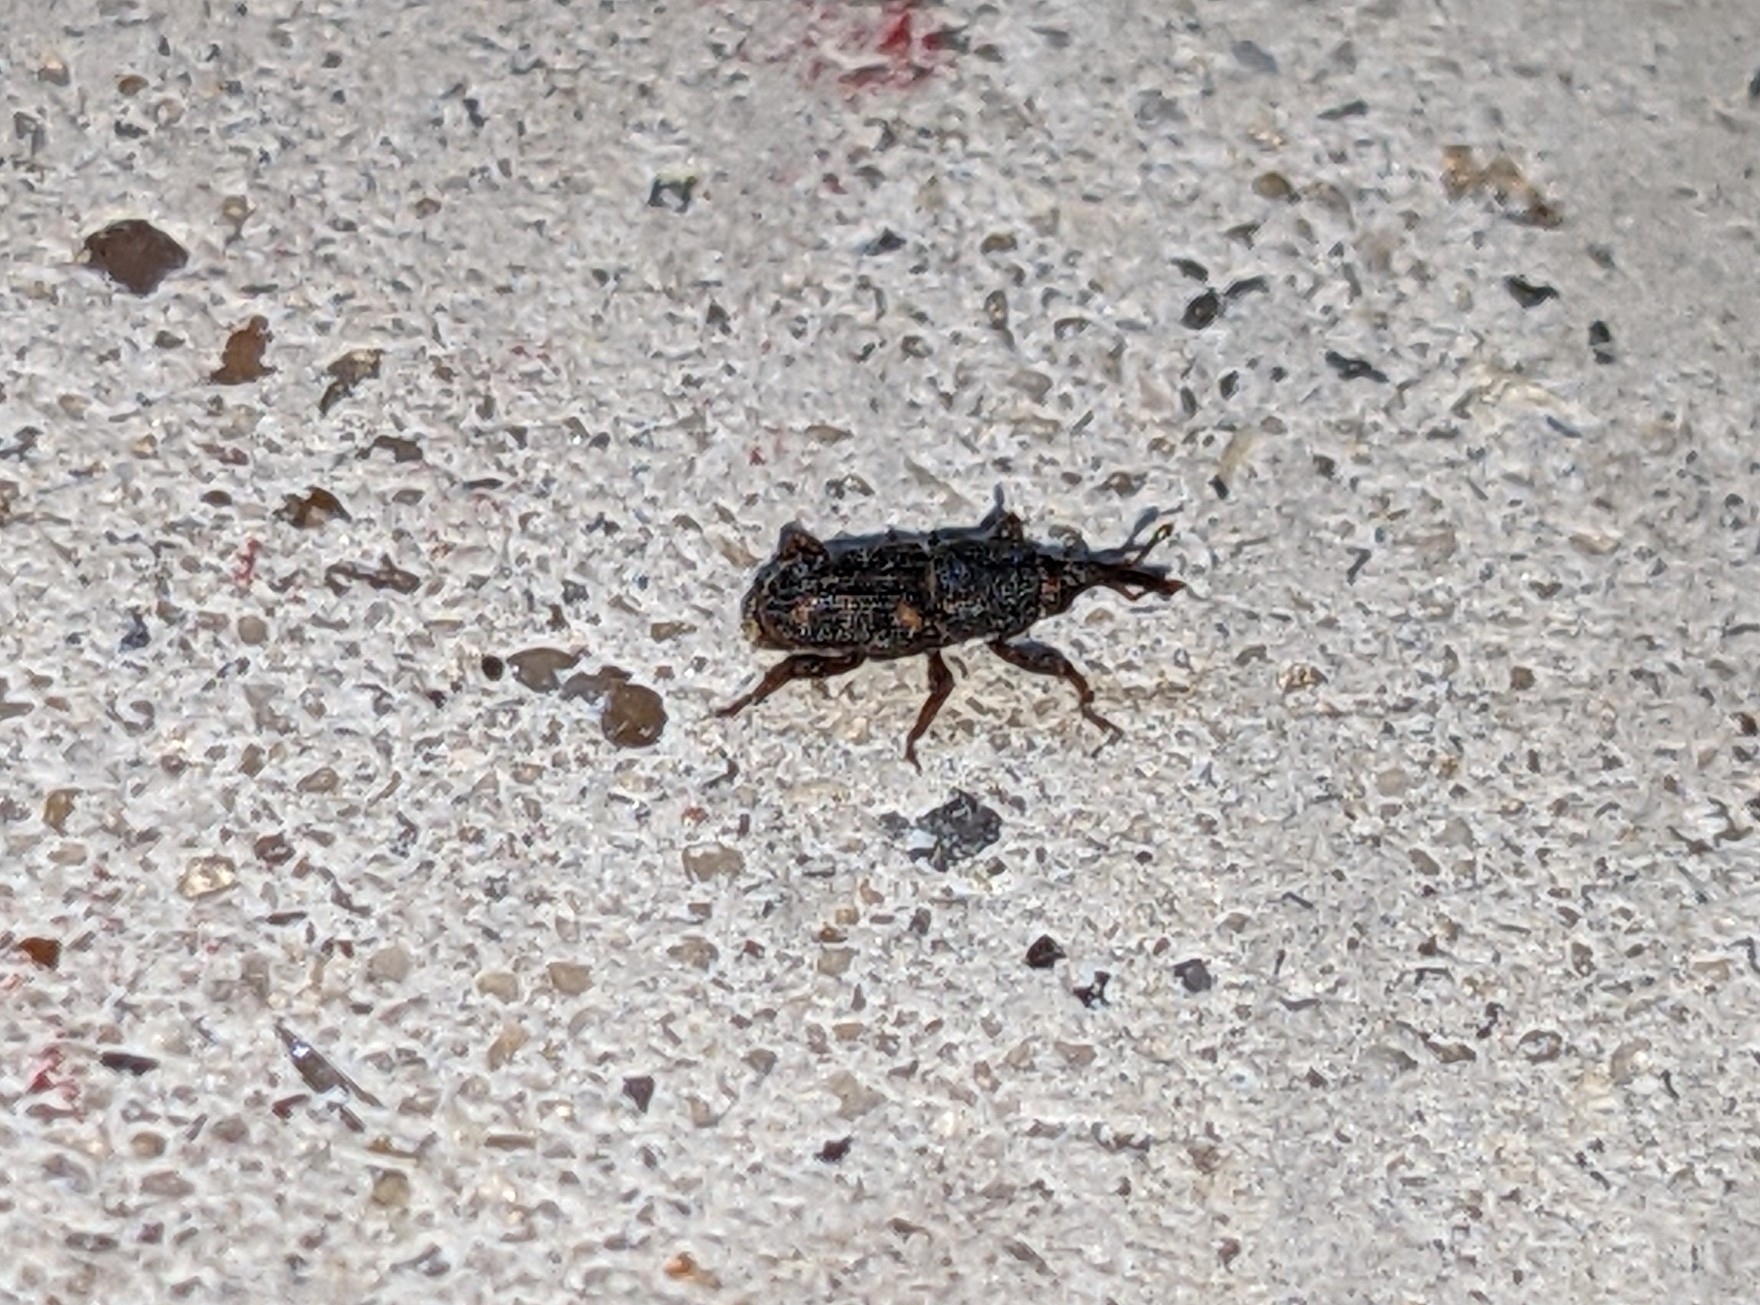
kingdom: Animalia
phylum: Arthropoda
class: Insecta
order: Coleoptera
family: Dryophthoridae
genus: Sitophilus
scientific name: Sitophilus
